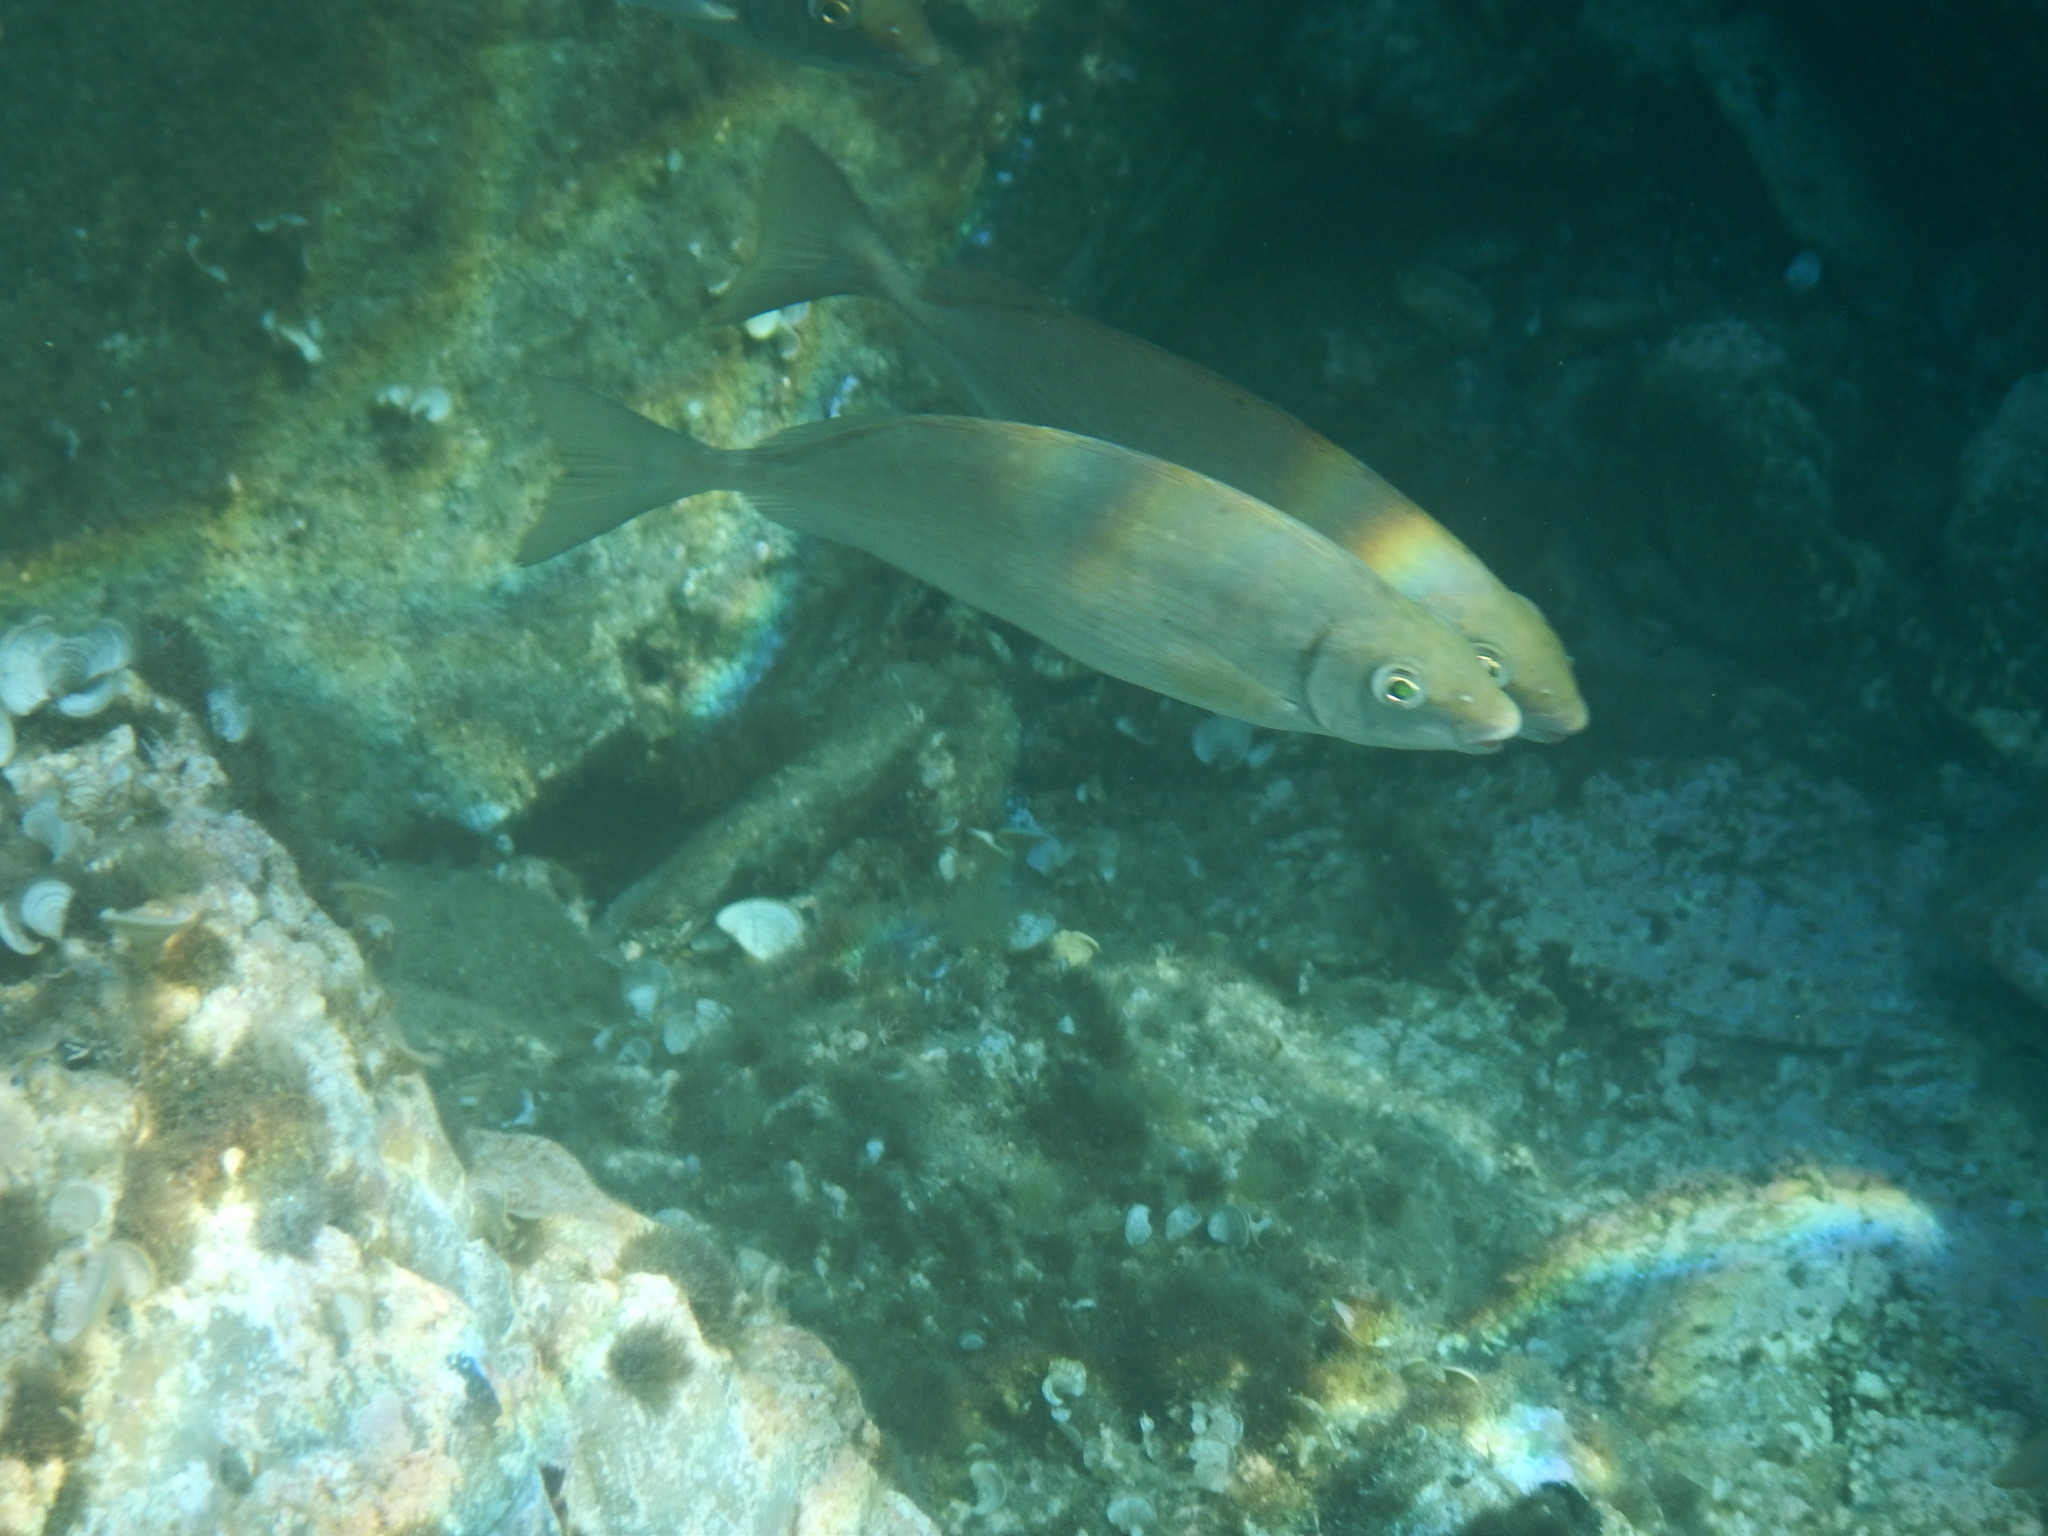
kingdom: Animalia
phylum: Chordata
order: Perciformes
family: Siganidae
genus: Siganus
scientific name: Siganus rivulatus
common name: Marbled spinefoot
